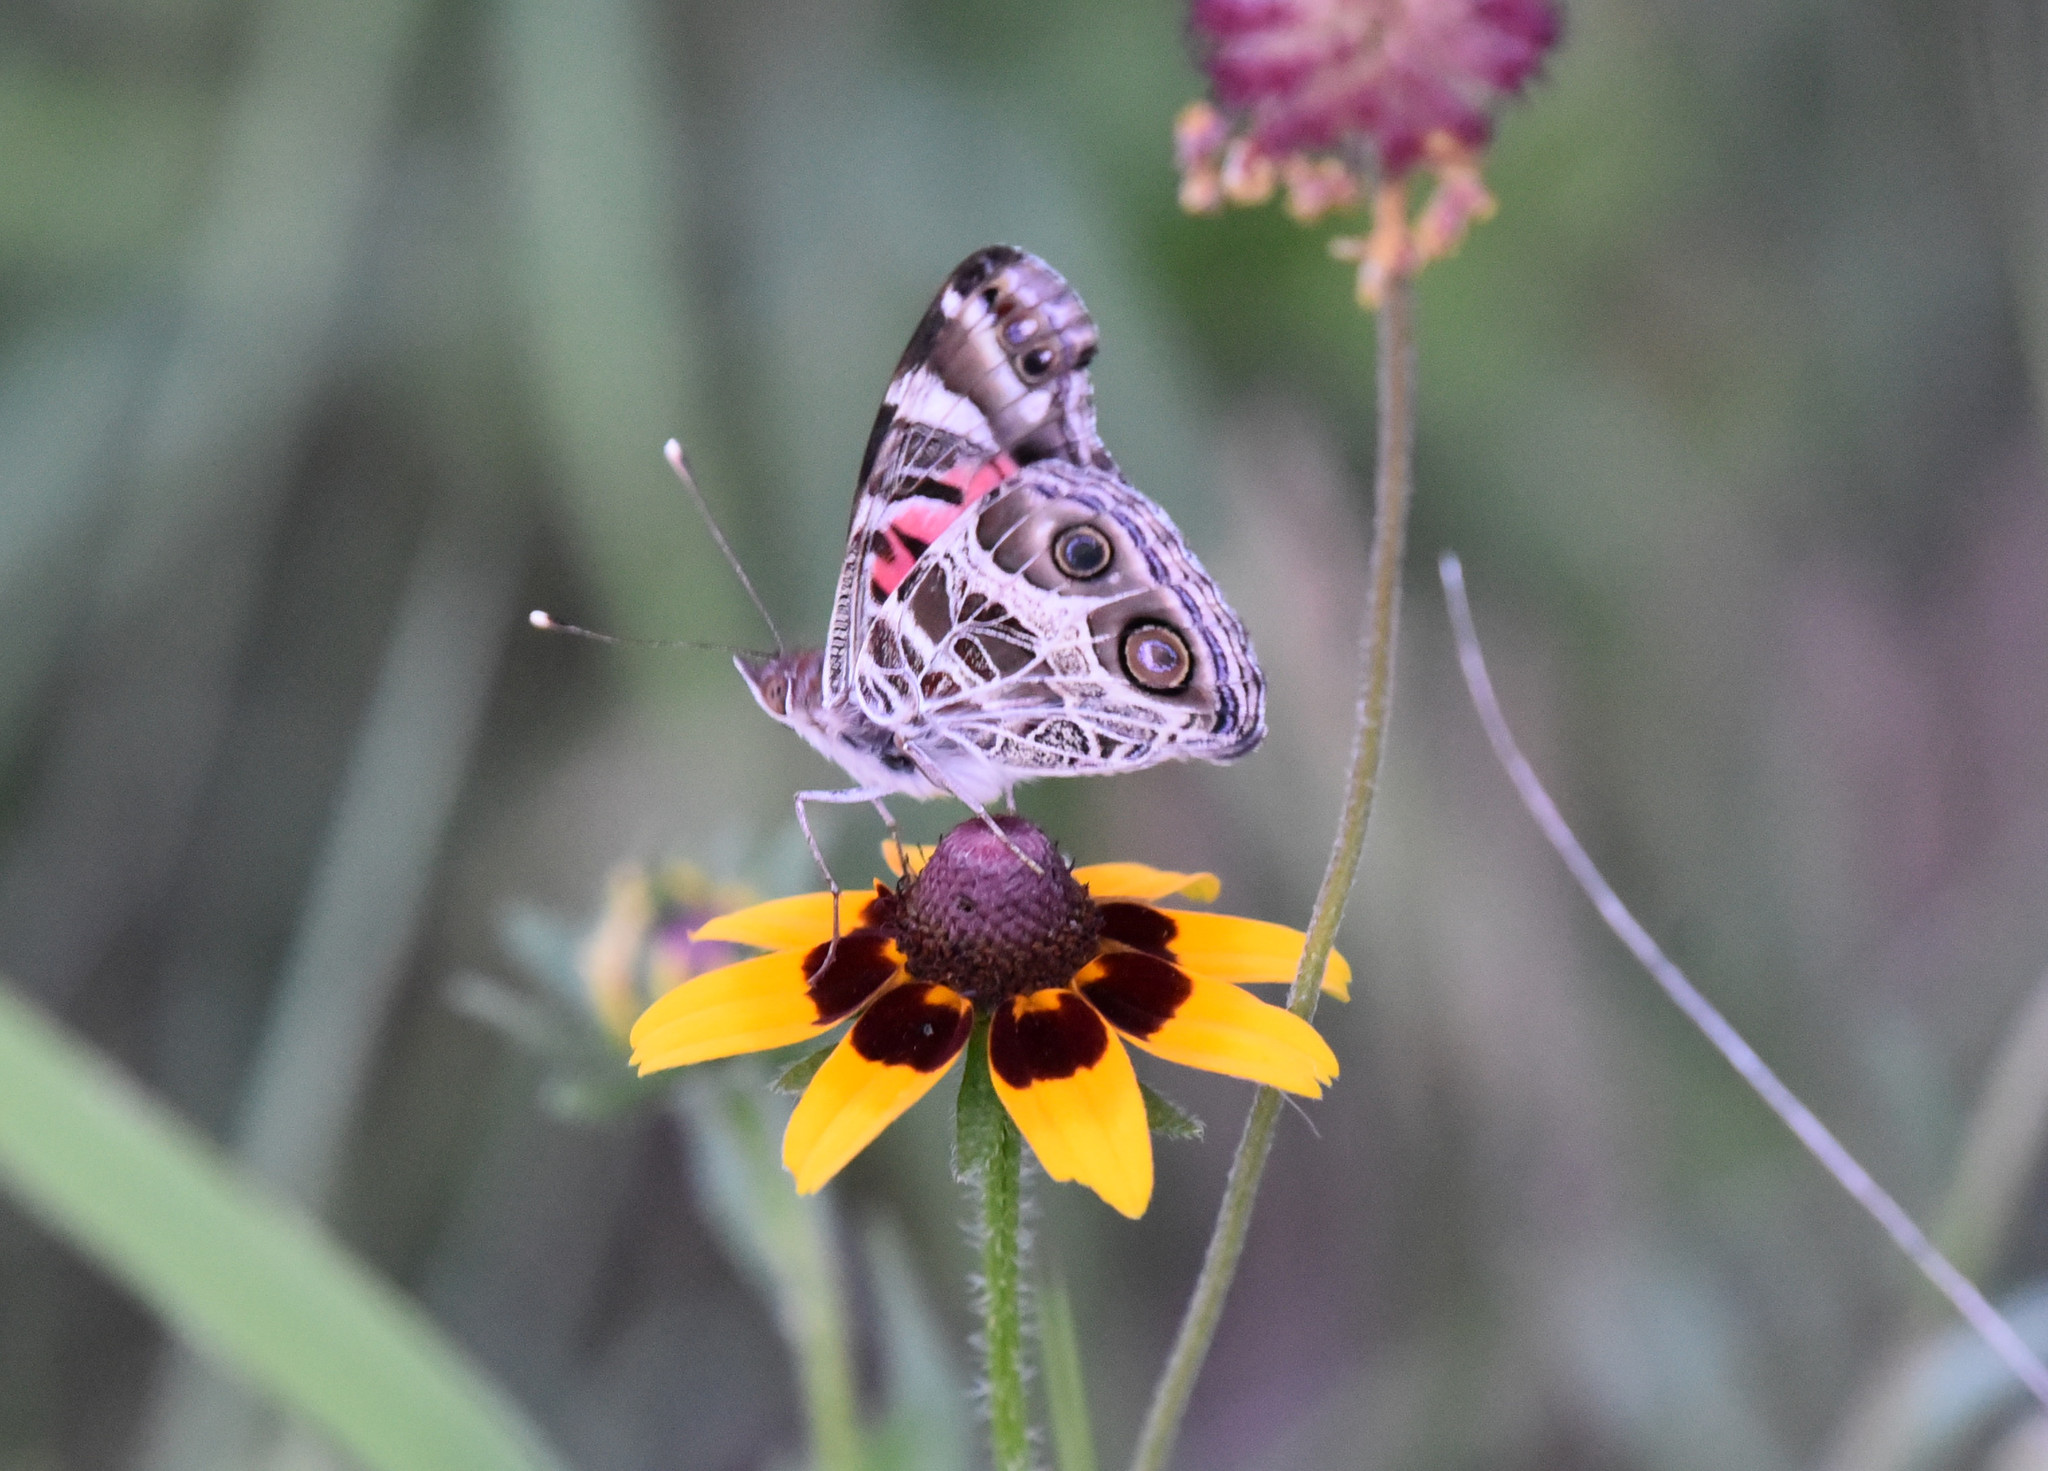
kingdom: Animalia
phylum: Arthropoda
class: Insecta
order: Lepidoptera
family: Nymphalidae
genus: Vanessa
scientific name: Vanessa virginiensis
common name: American lady
